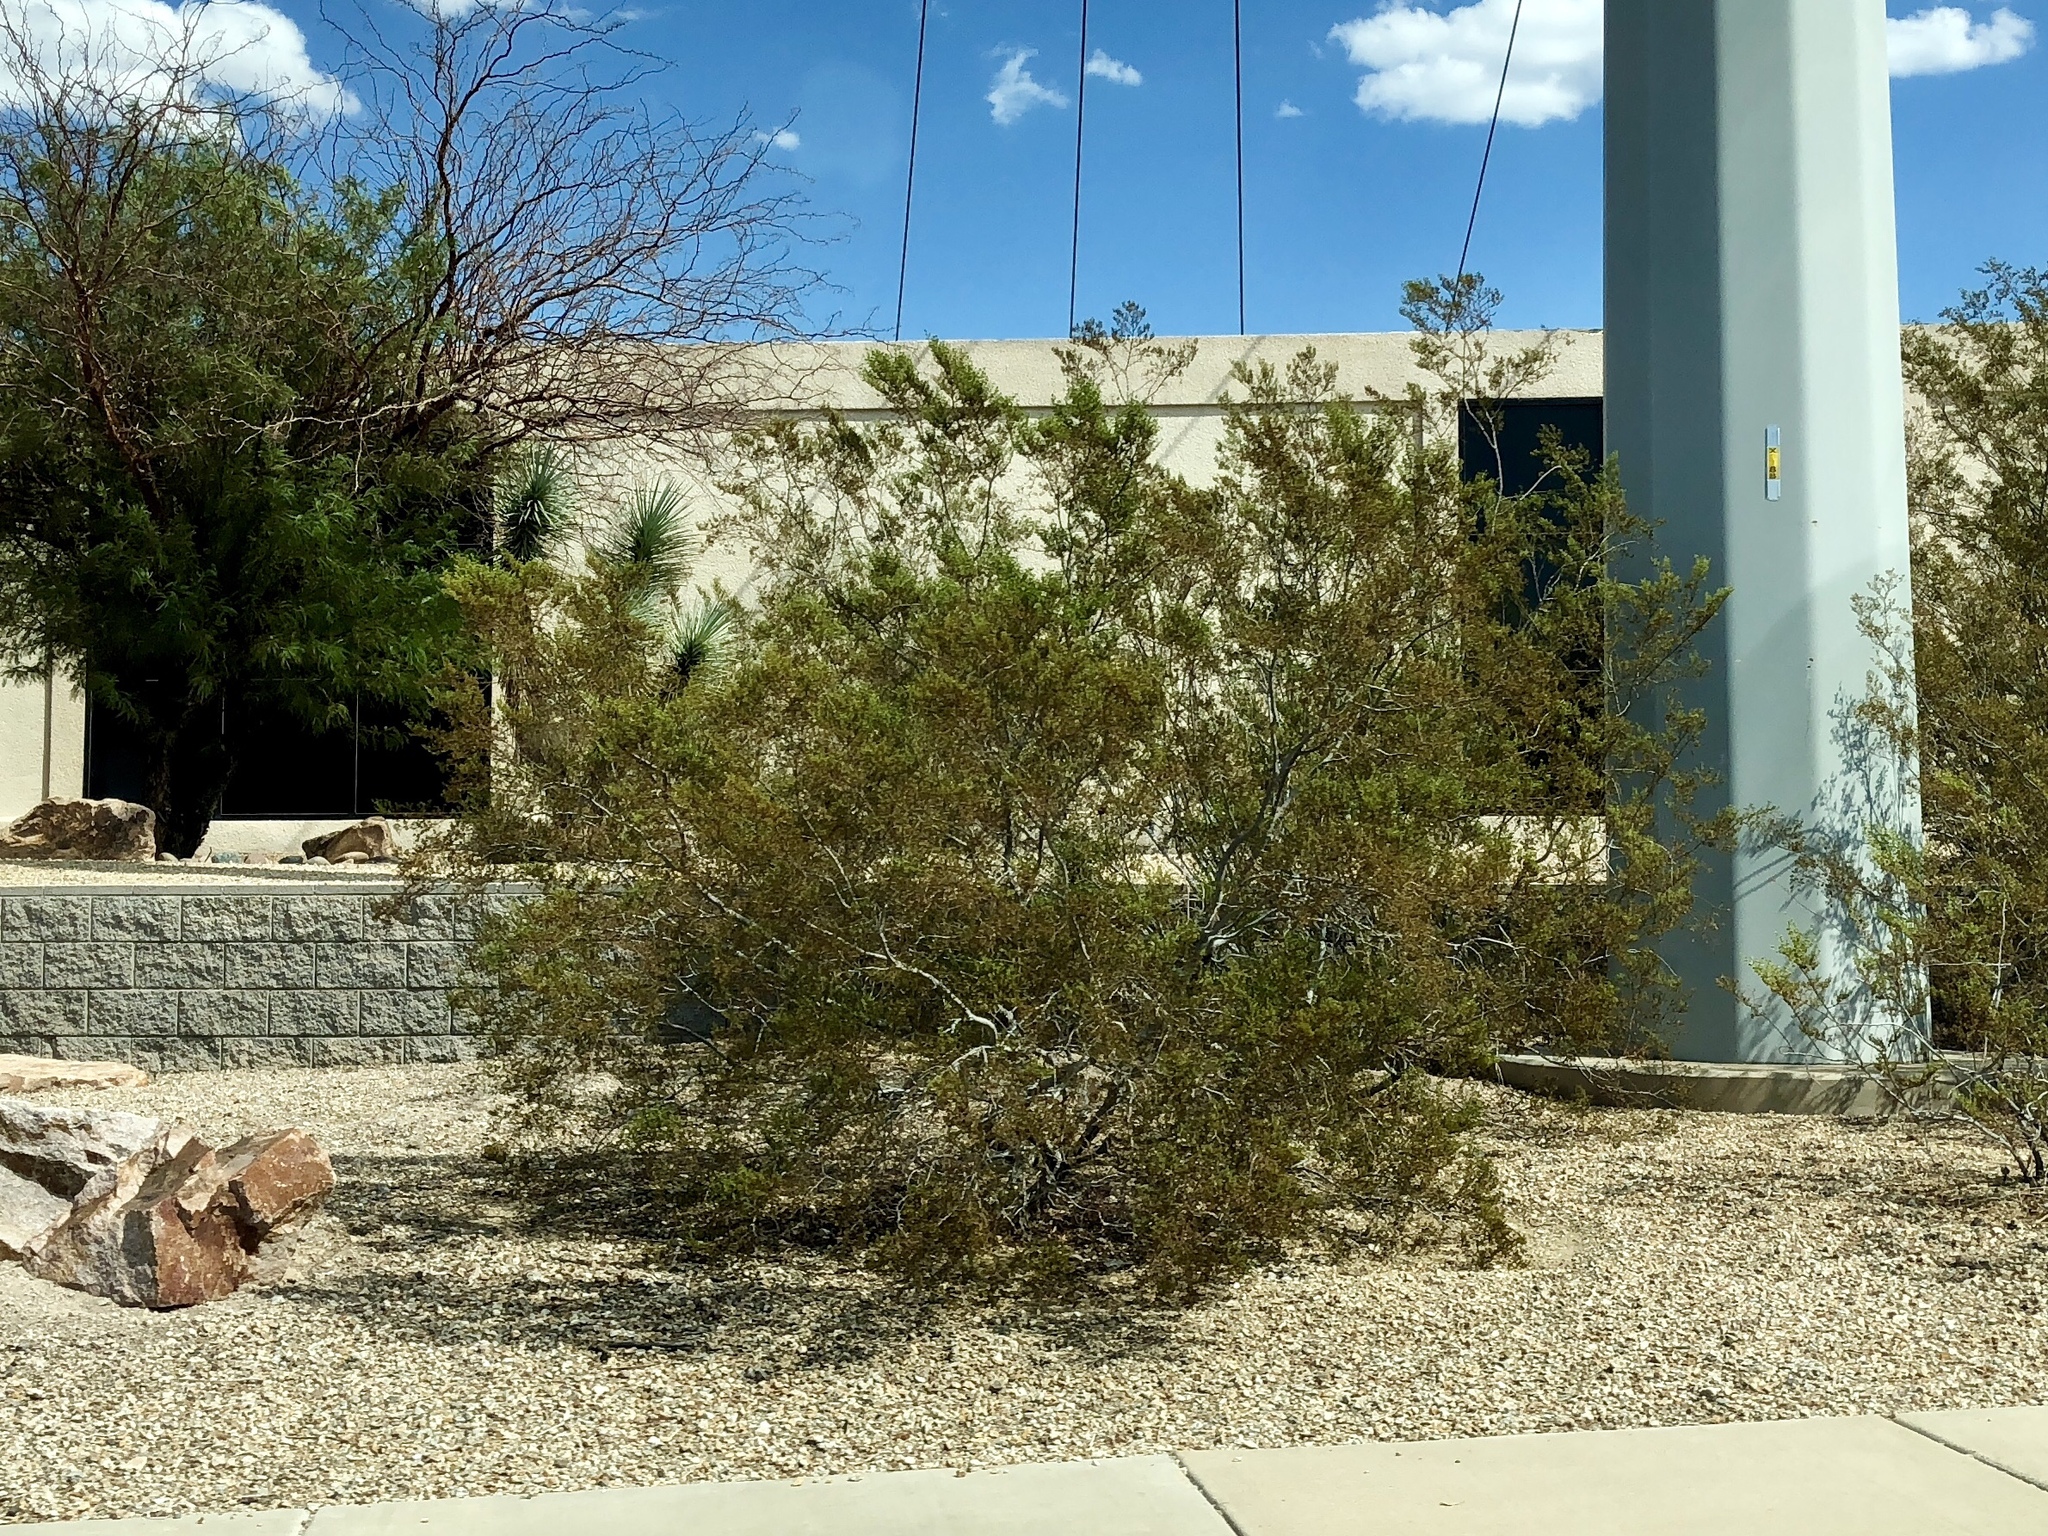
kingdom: Plantae
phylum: Tracheophyta
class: Magnoliopsida
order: Zygophyllales
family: Zygophyllaceae
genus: Larrea
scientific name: Larrea tridentata
